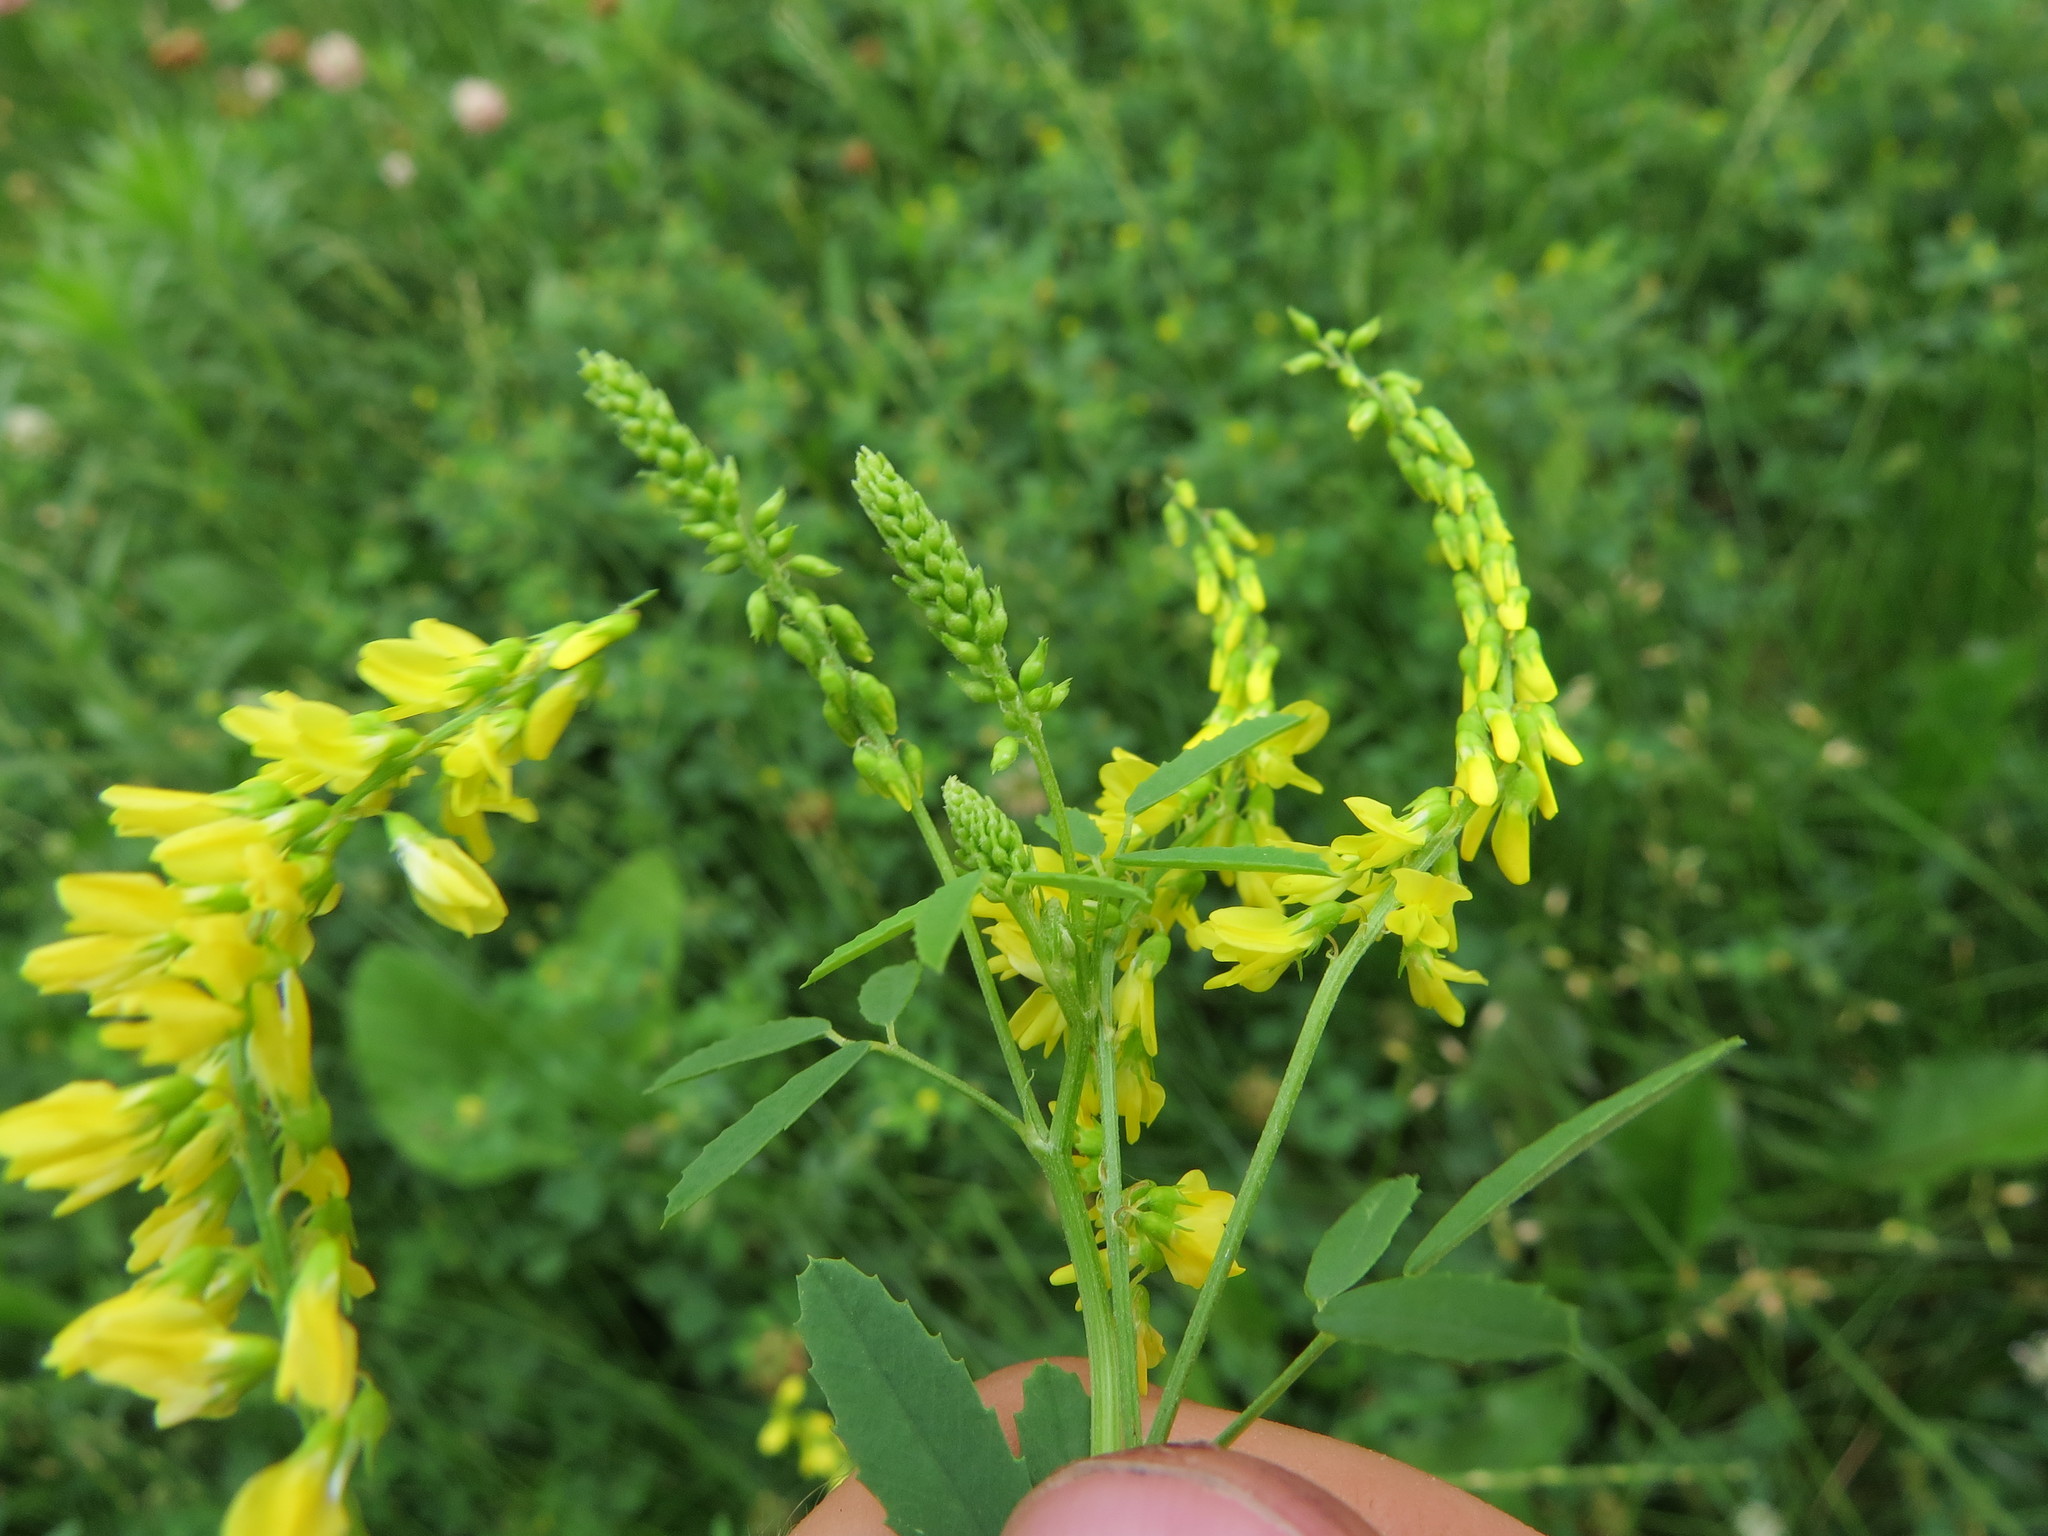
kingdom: Plantae
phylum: Tracheophyta
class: Magnoliopsida
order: Fabales
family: Fabaceae
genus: Melilotus
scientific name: Melilotus officinalis
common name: Sweetclover
